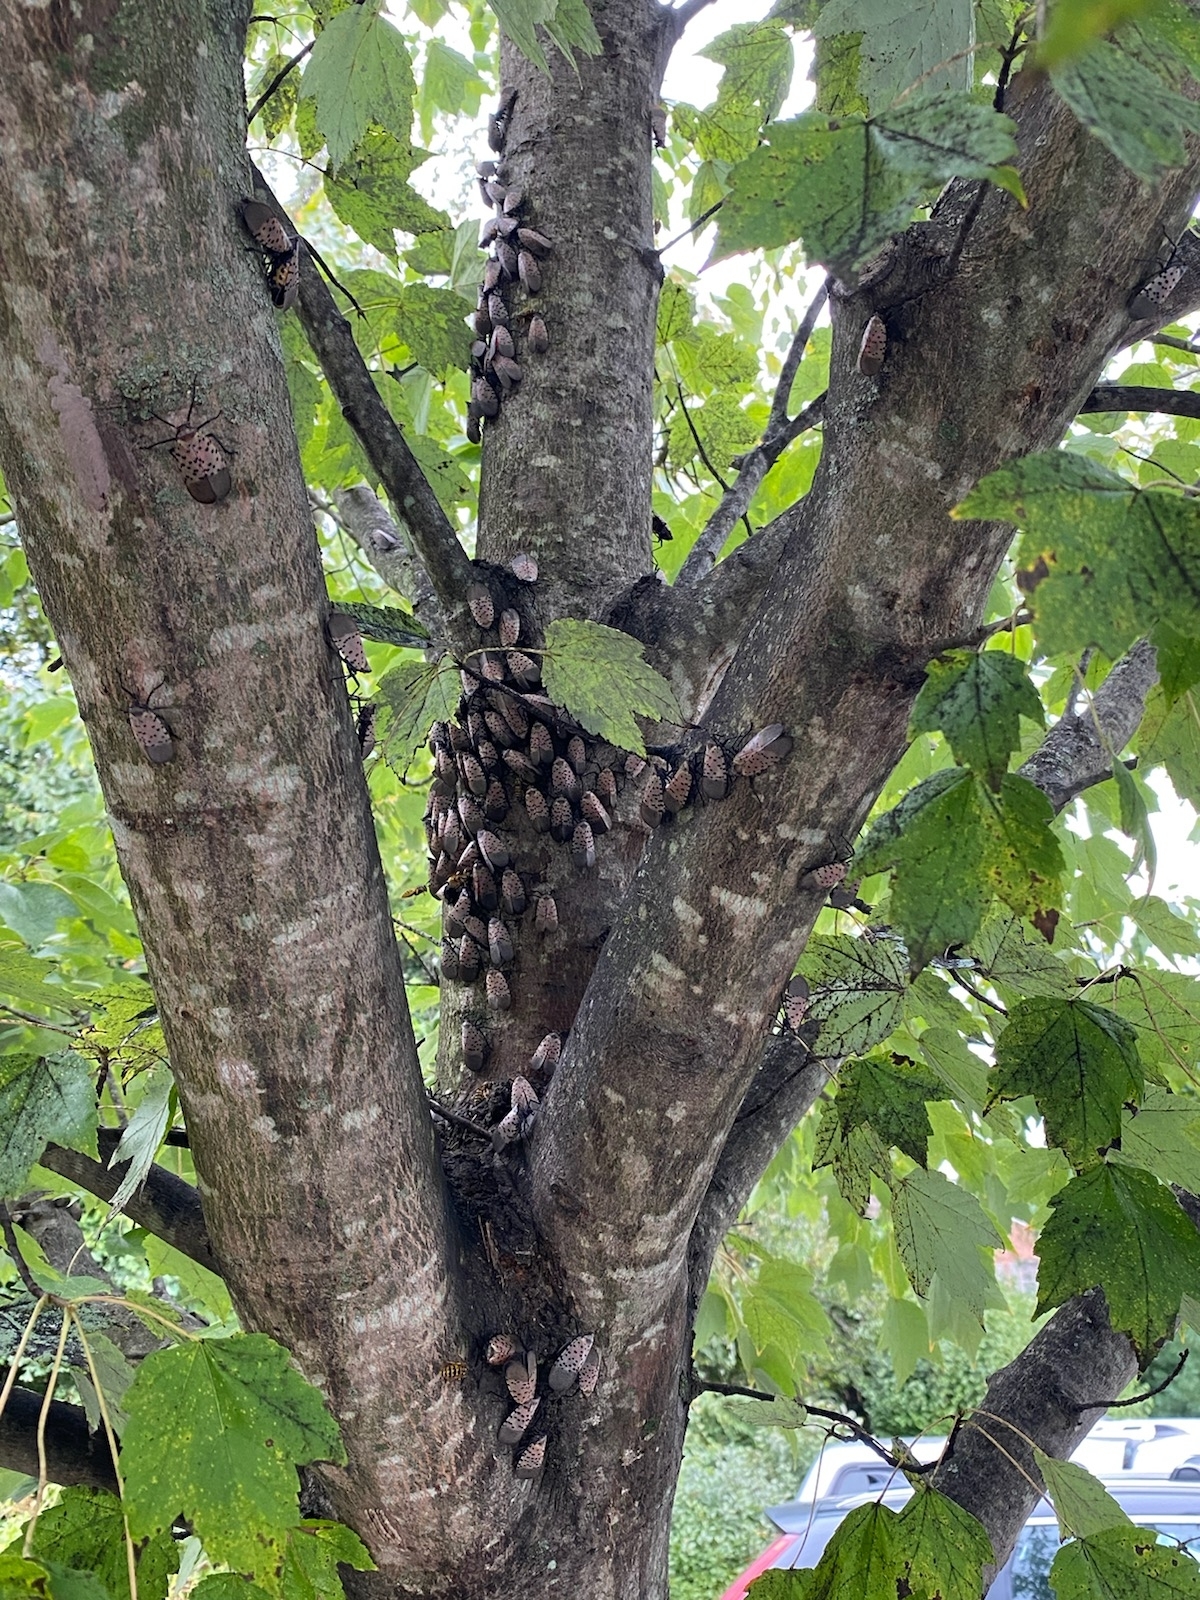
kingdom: Animalia
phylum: Arthropoda
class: Insecta
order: Hemiptera
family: Fulgoridae
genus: Lycorma
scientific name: Lycorma delicatula
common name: Spotted lanternfly
